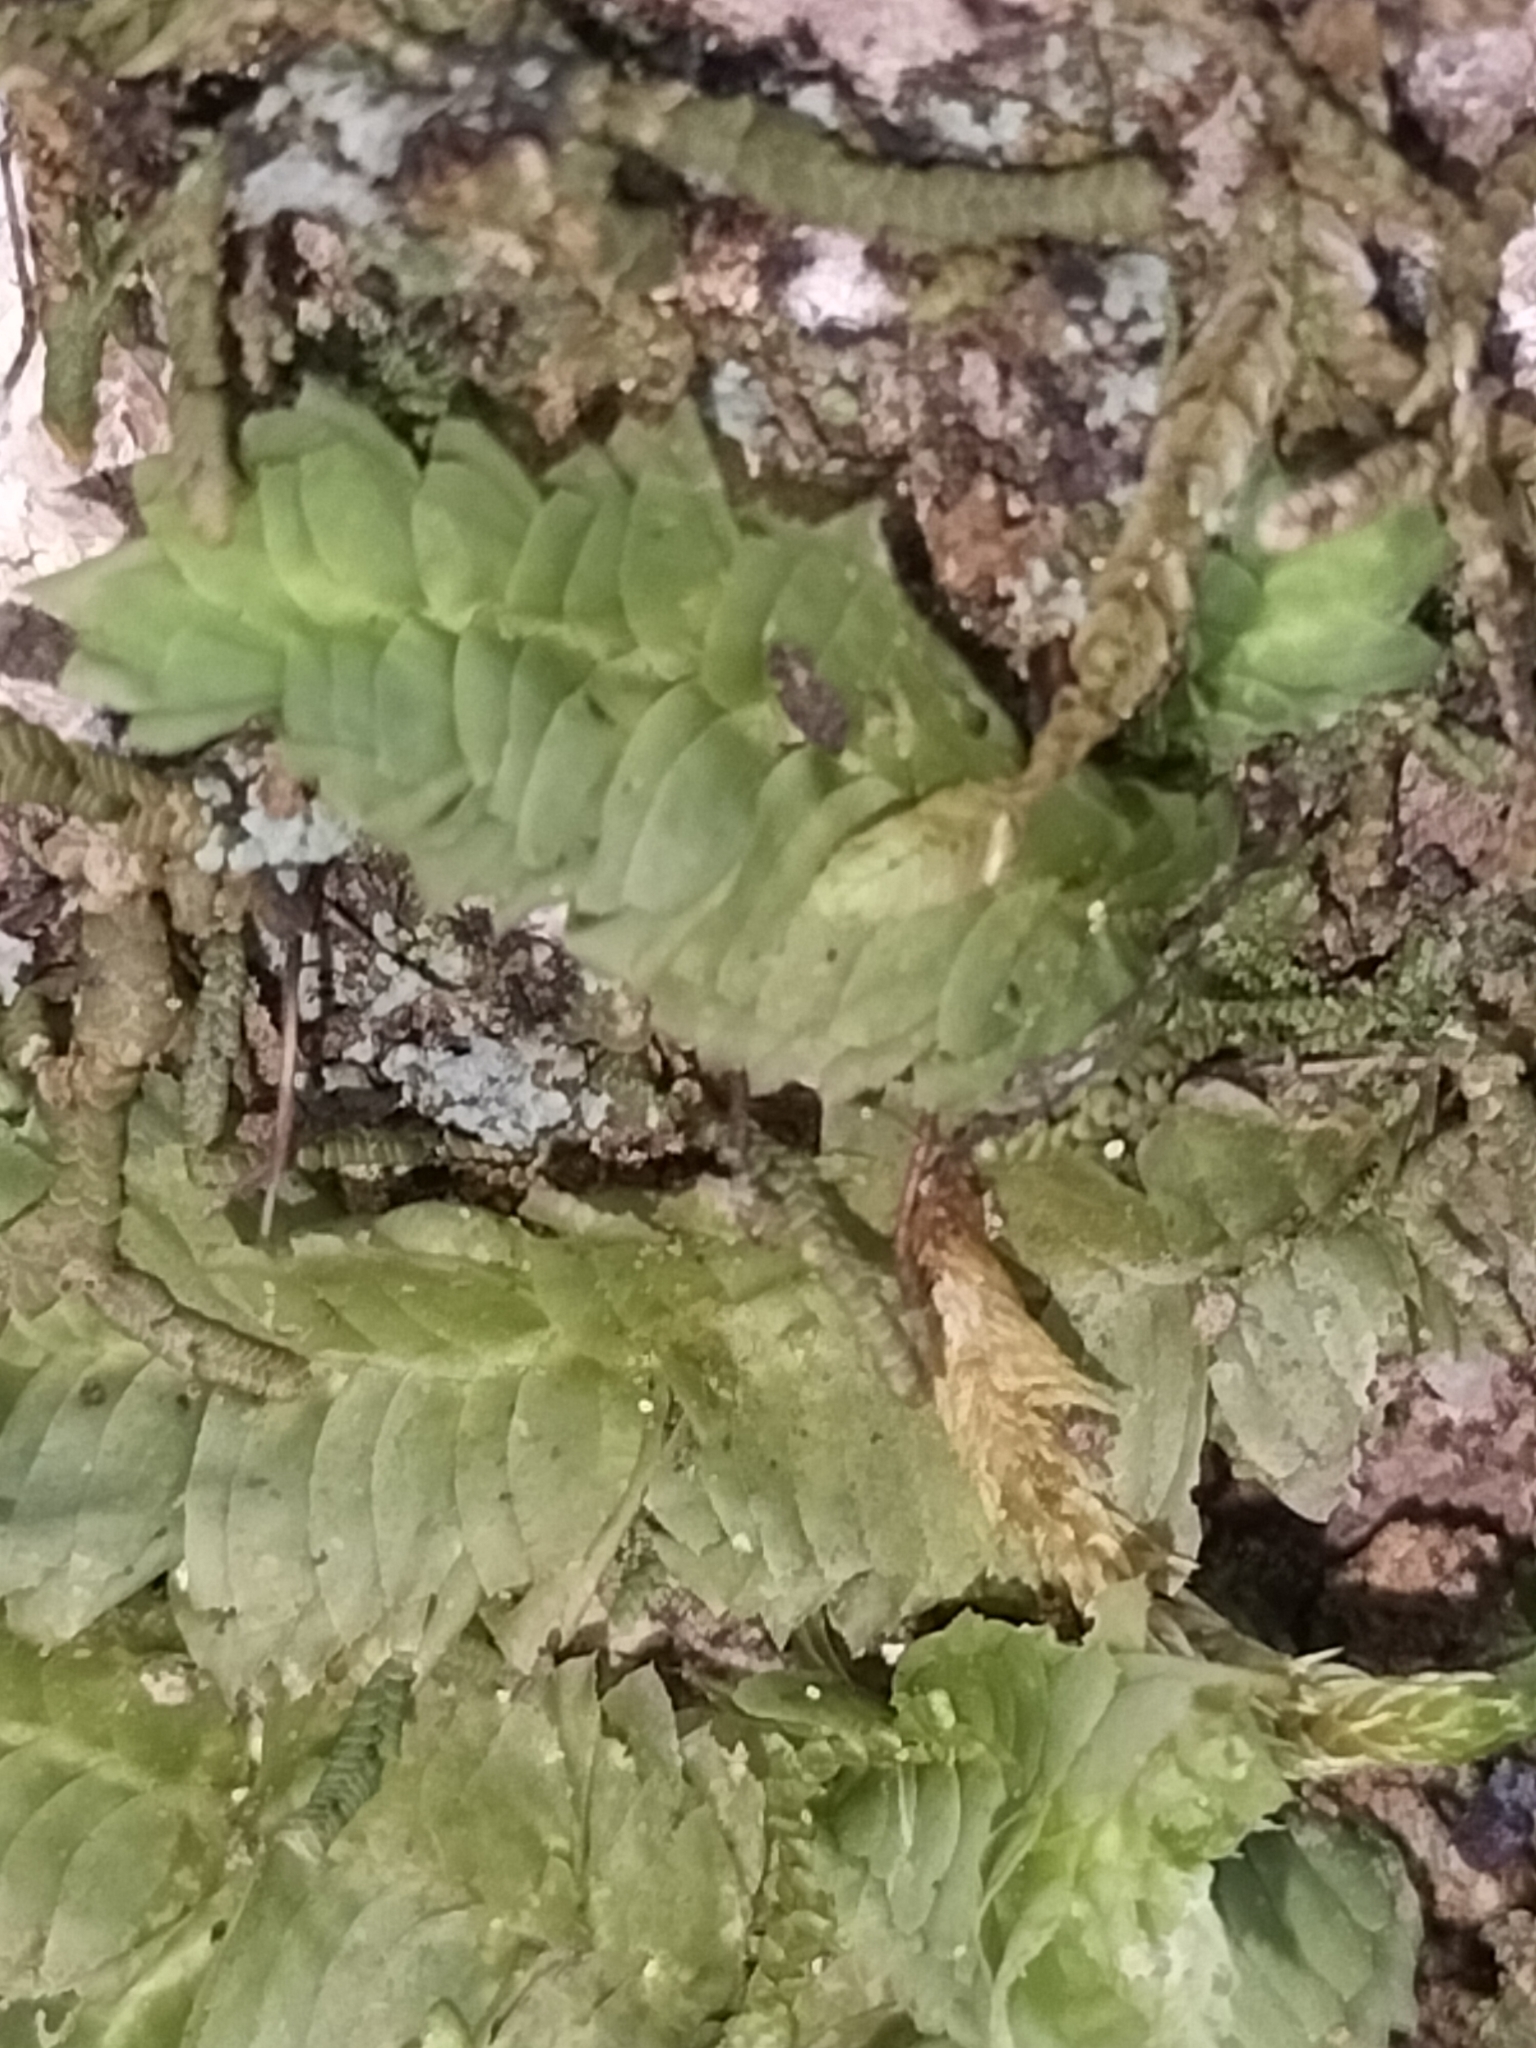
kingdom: Plantae
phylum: Marchantiophyta
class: Jungermanniopsida
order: Jungermanniales
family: Schistochilaceae
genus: Schistochila
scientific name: Schistochila tuloides
